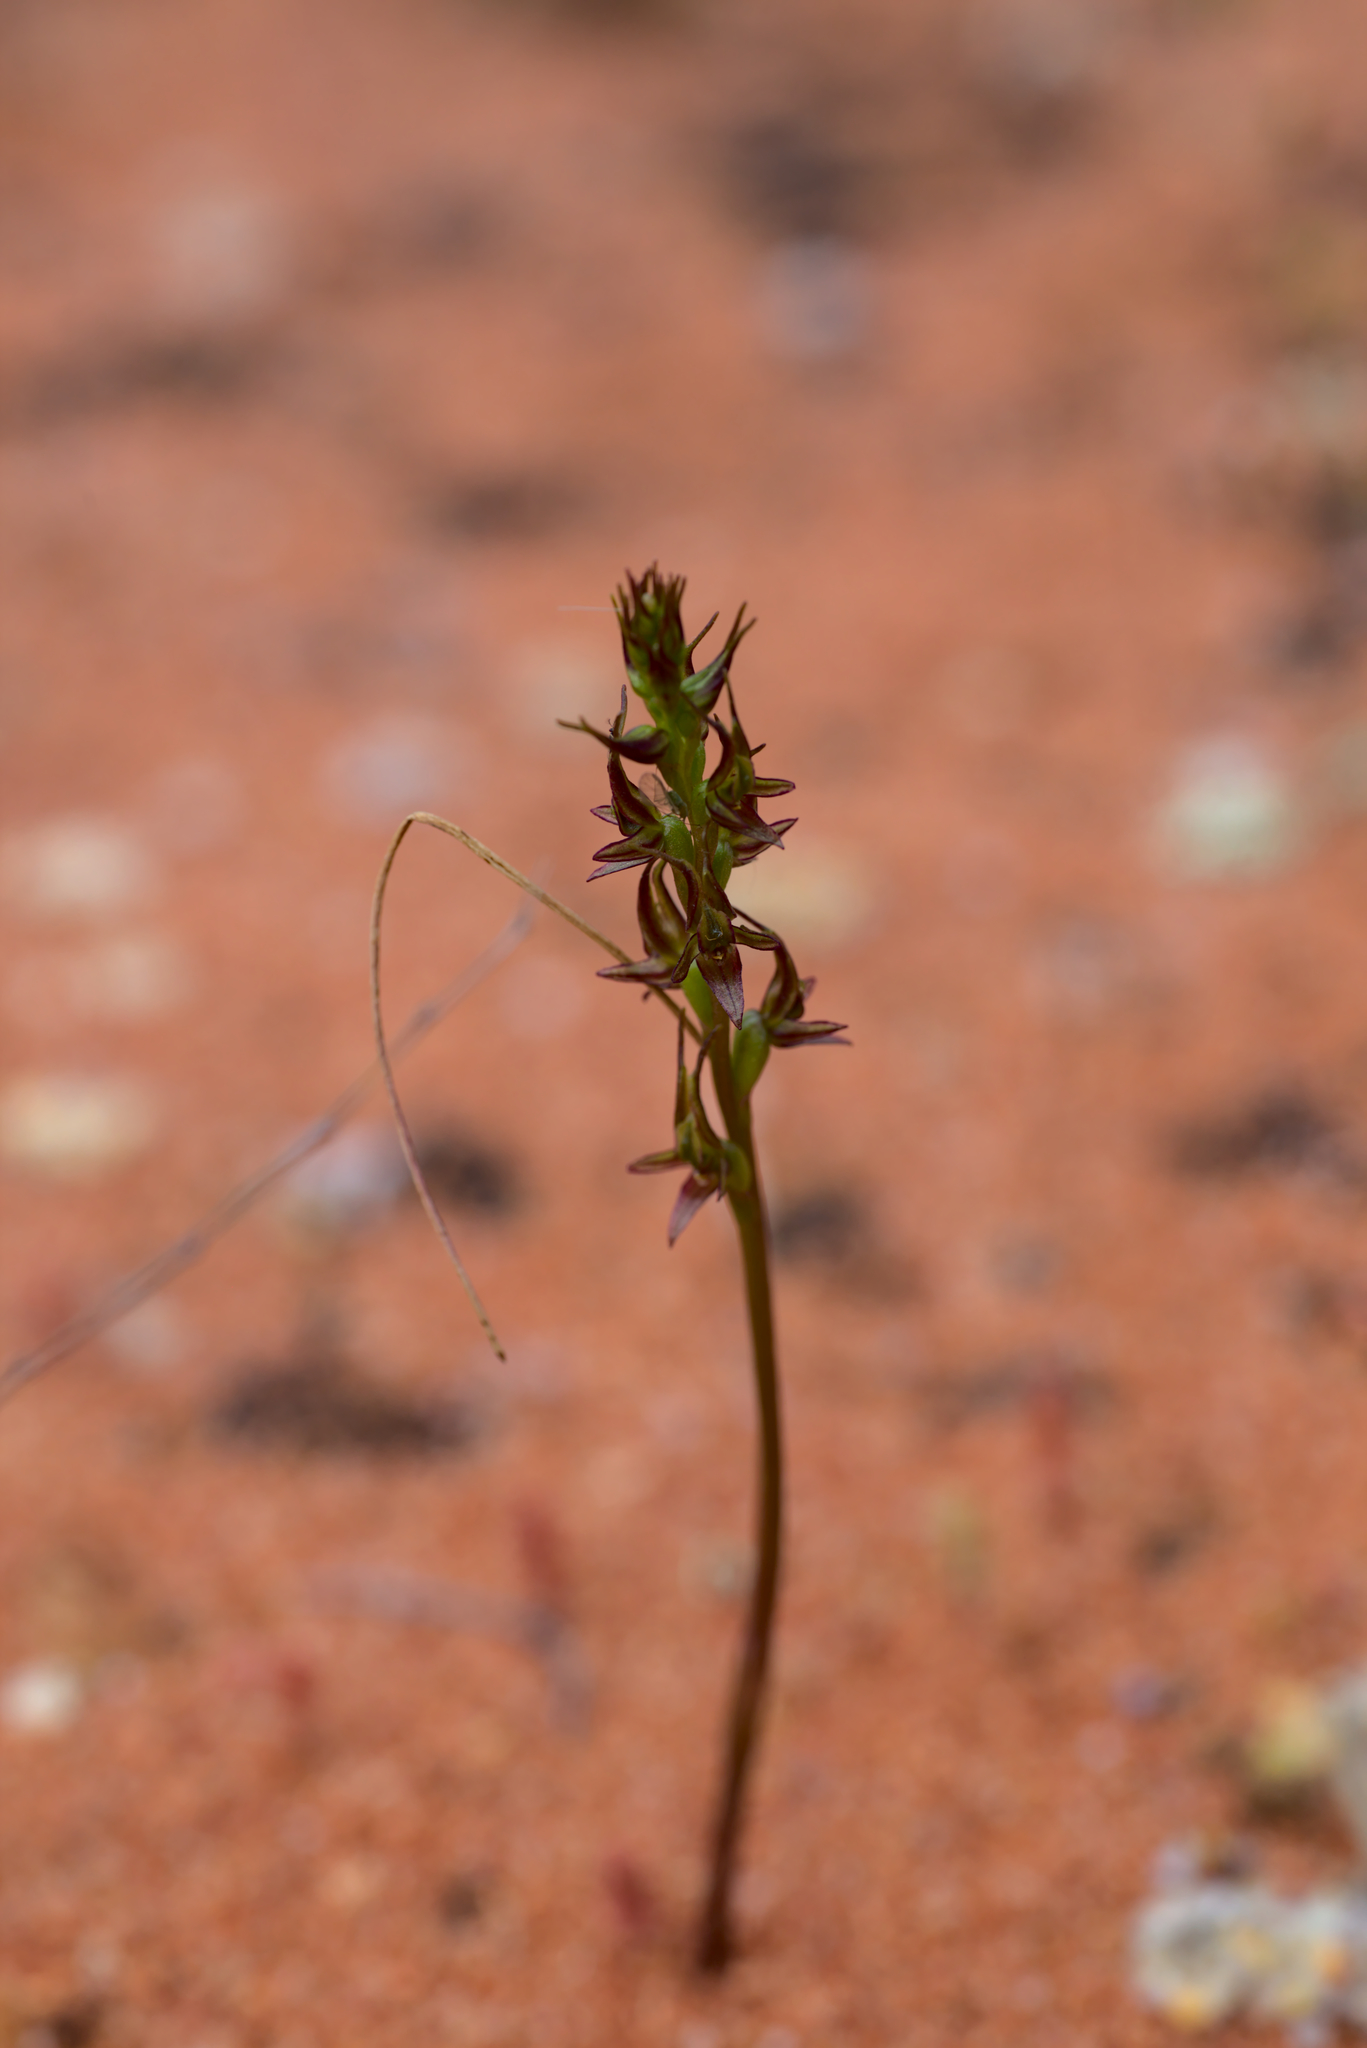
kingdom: Plantae
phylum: Tracheophyta
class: Liliopsida
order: Asparagales
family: Orchidaceae
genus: Prasophyllum
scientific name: Prasophyllum gracile
